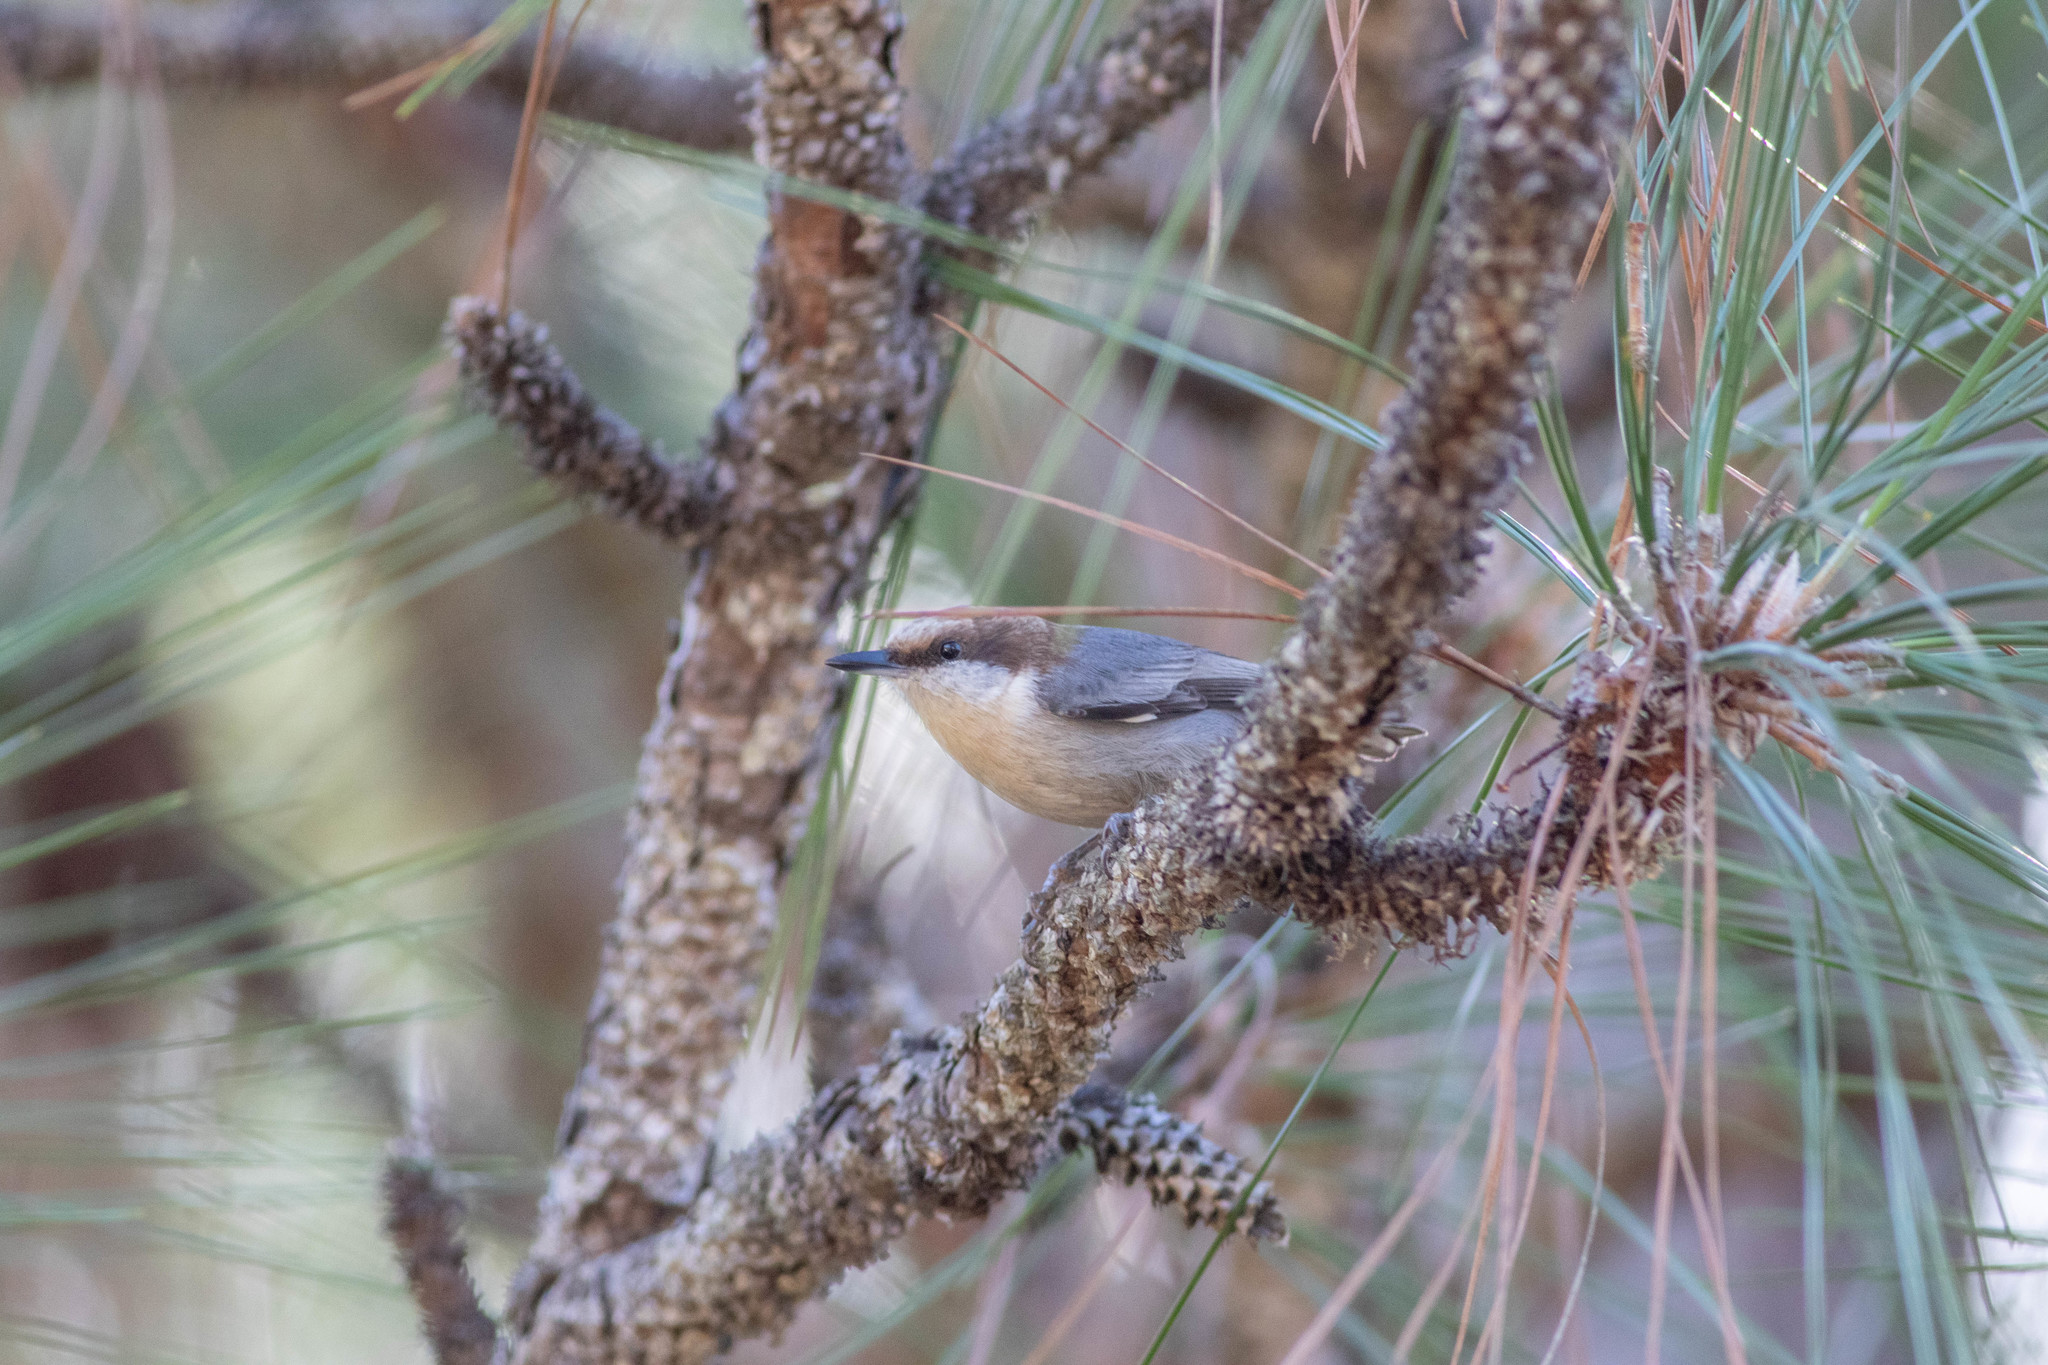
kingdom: Animalia
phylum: Chordata
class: Aves
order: Passeriformes
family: Sittidae
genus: Sitta
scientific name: Sitta pusilla
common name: Brown-headed nuthatch
